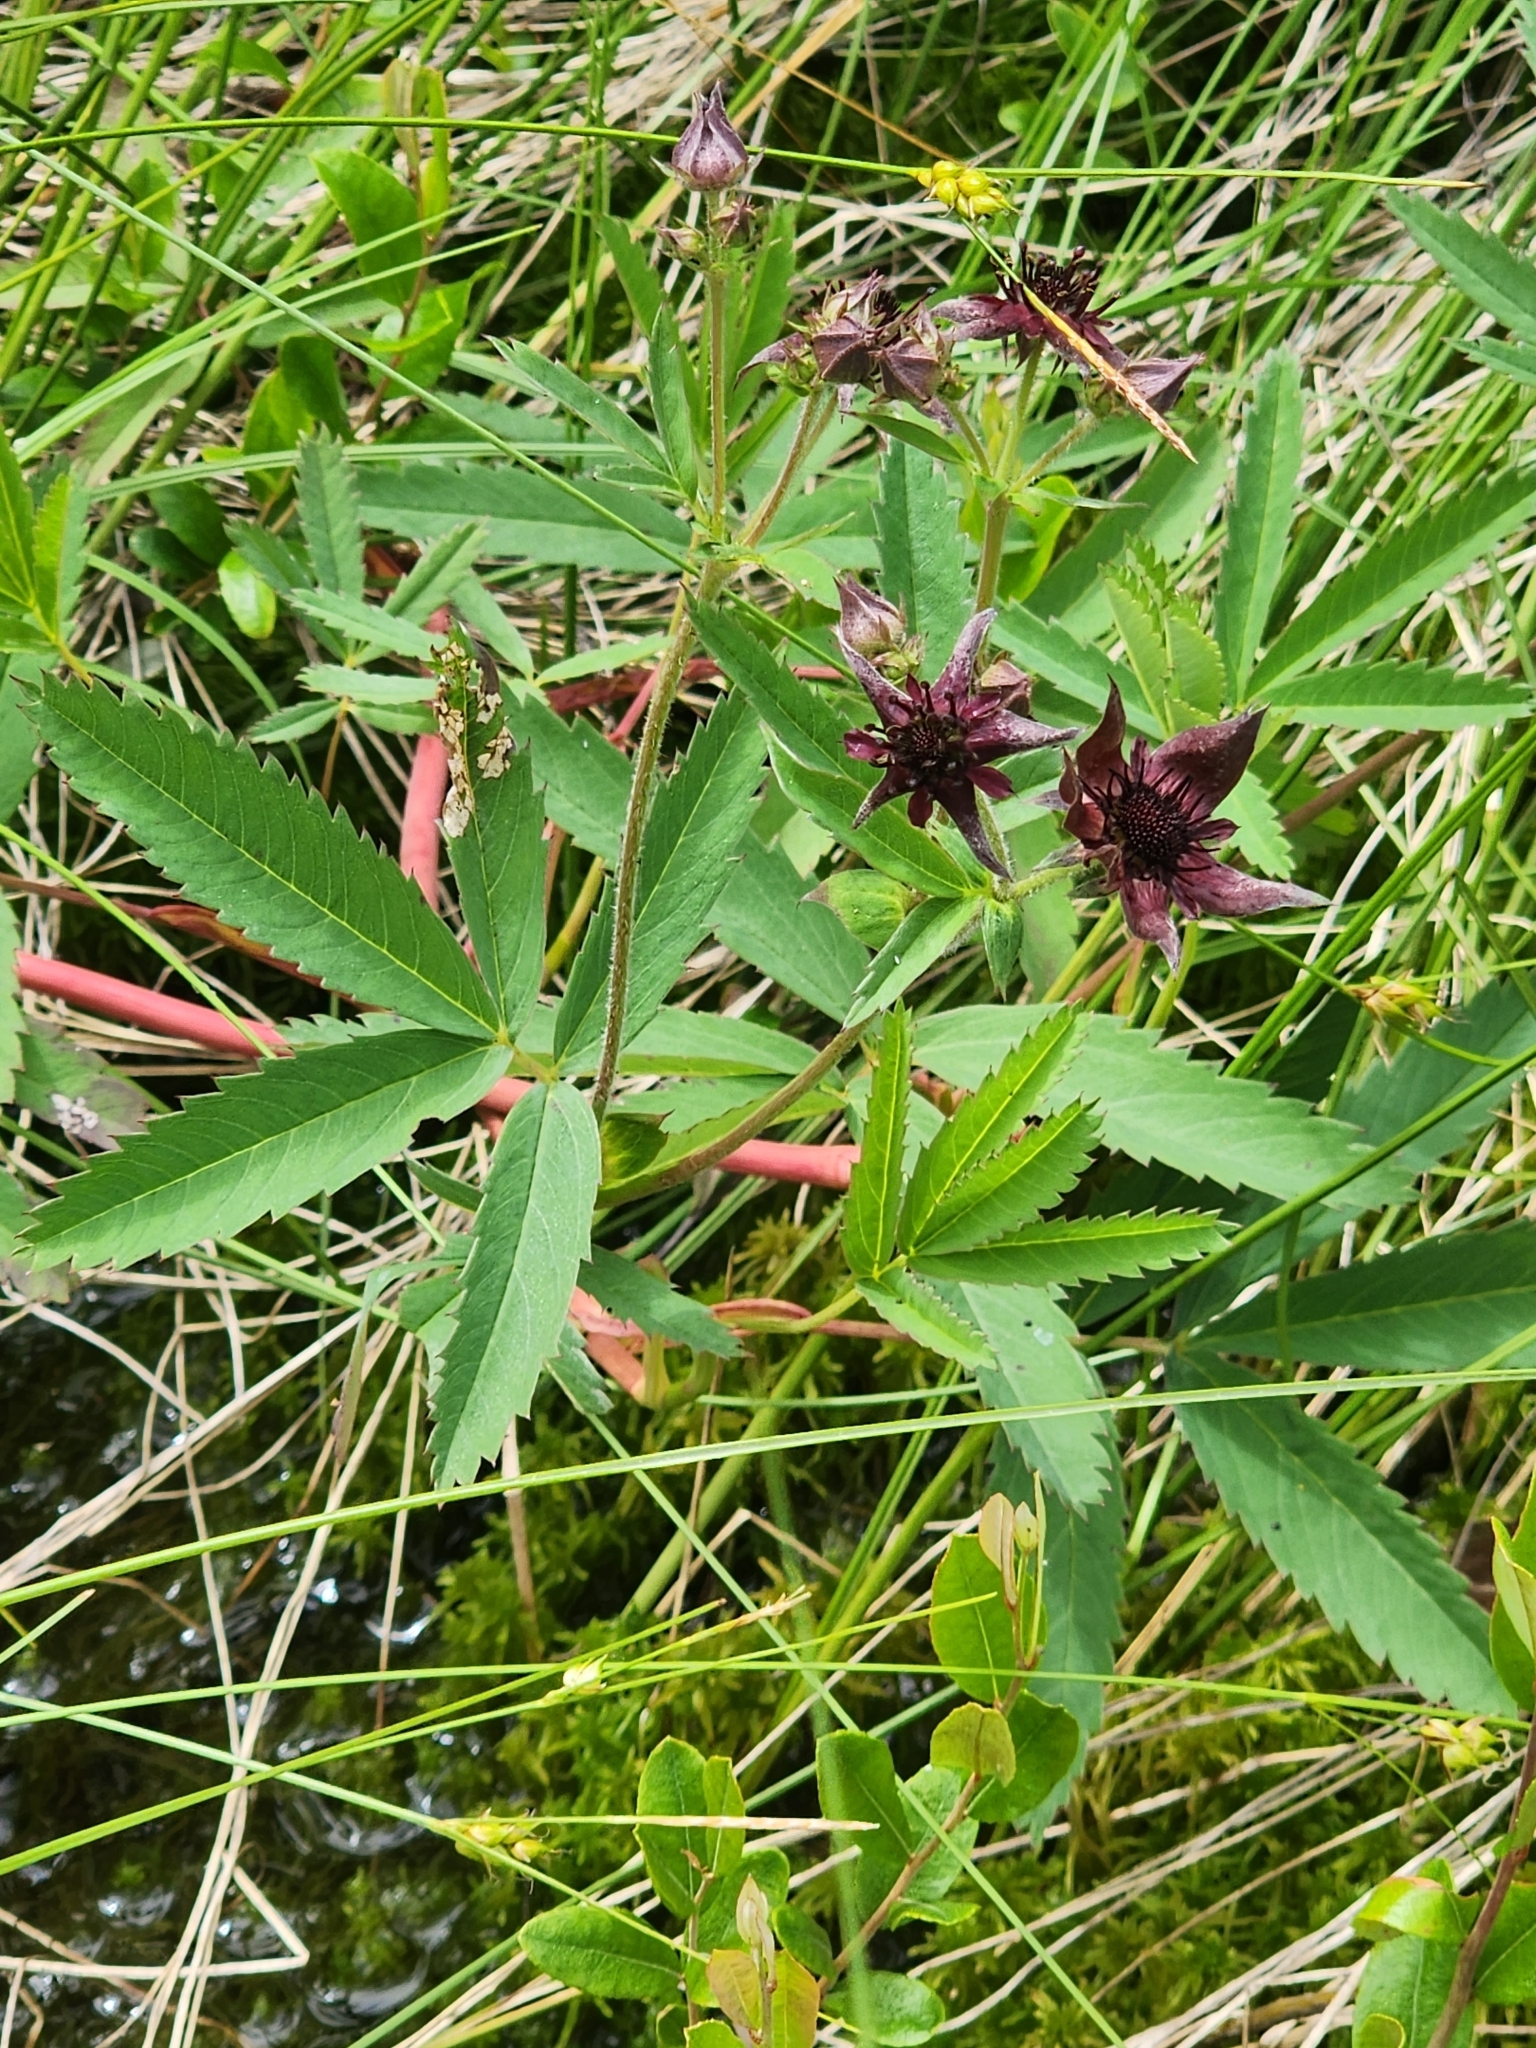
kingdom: Plantae
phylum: Tracheophyta
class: Magnoliopsida
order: Rosales
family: Rosaceae
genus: Comarum
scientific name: Comarum palustre
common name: Marsh cinquefoil
